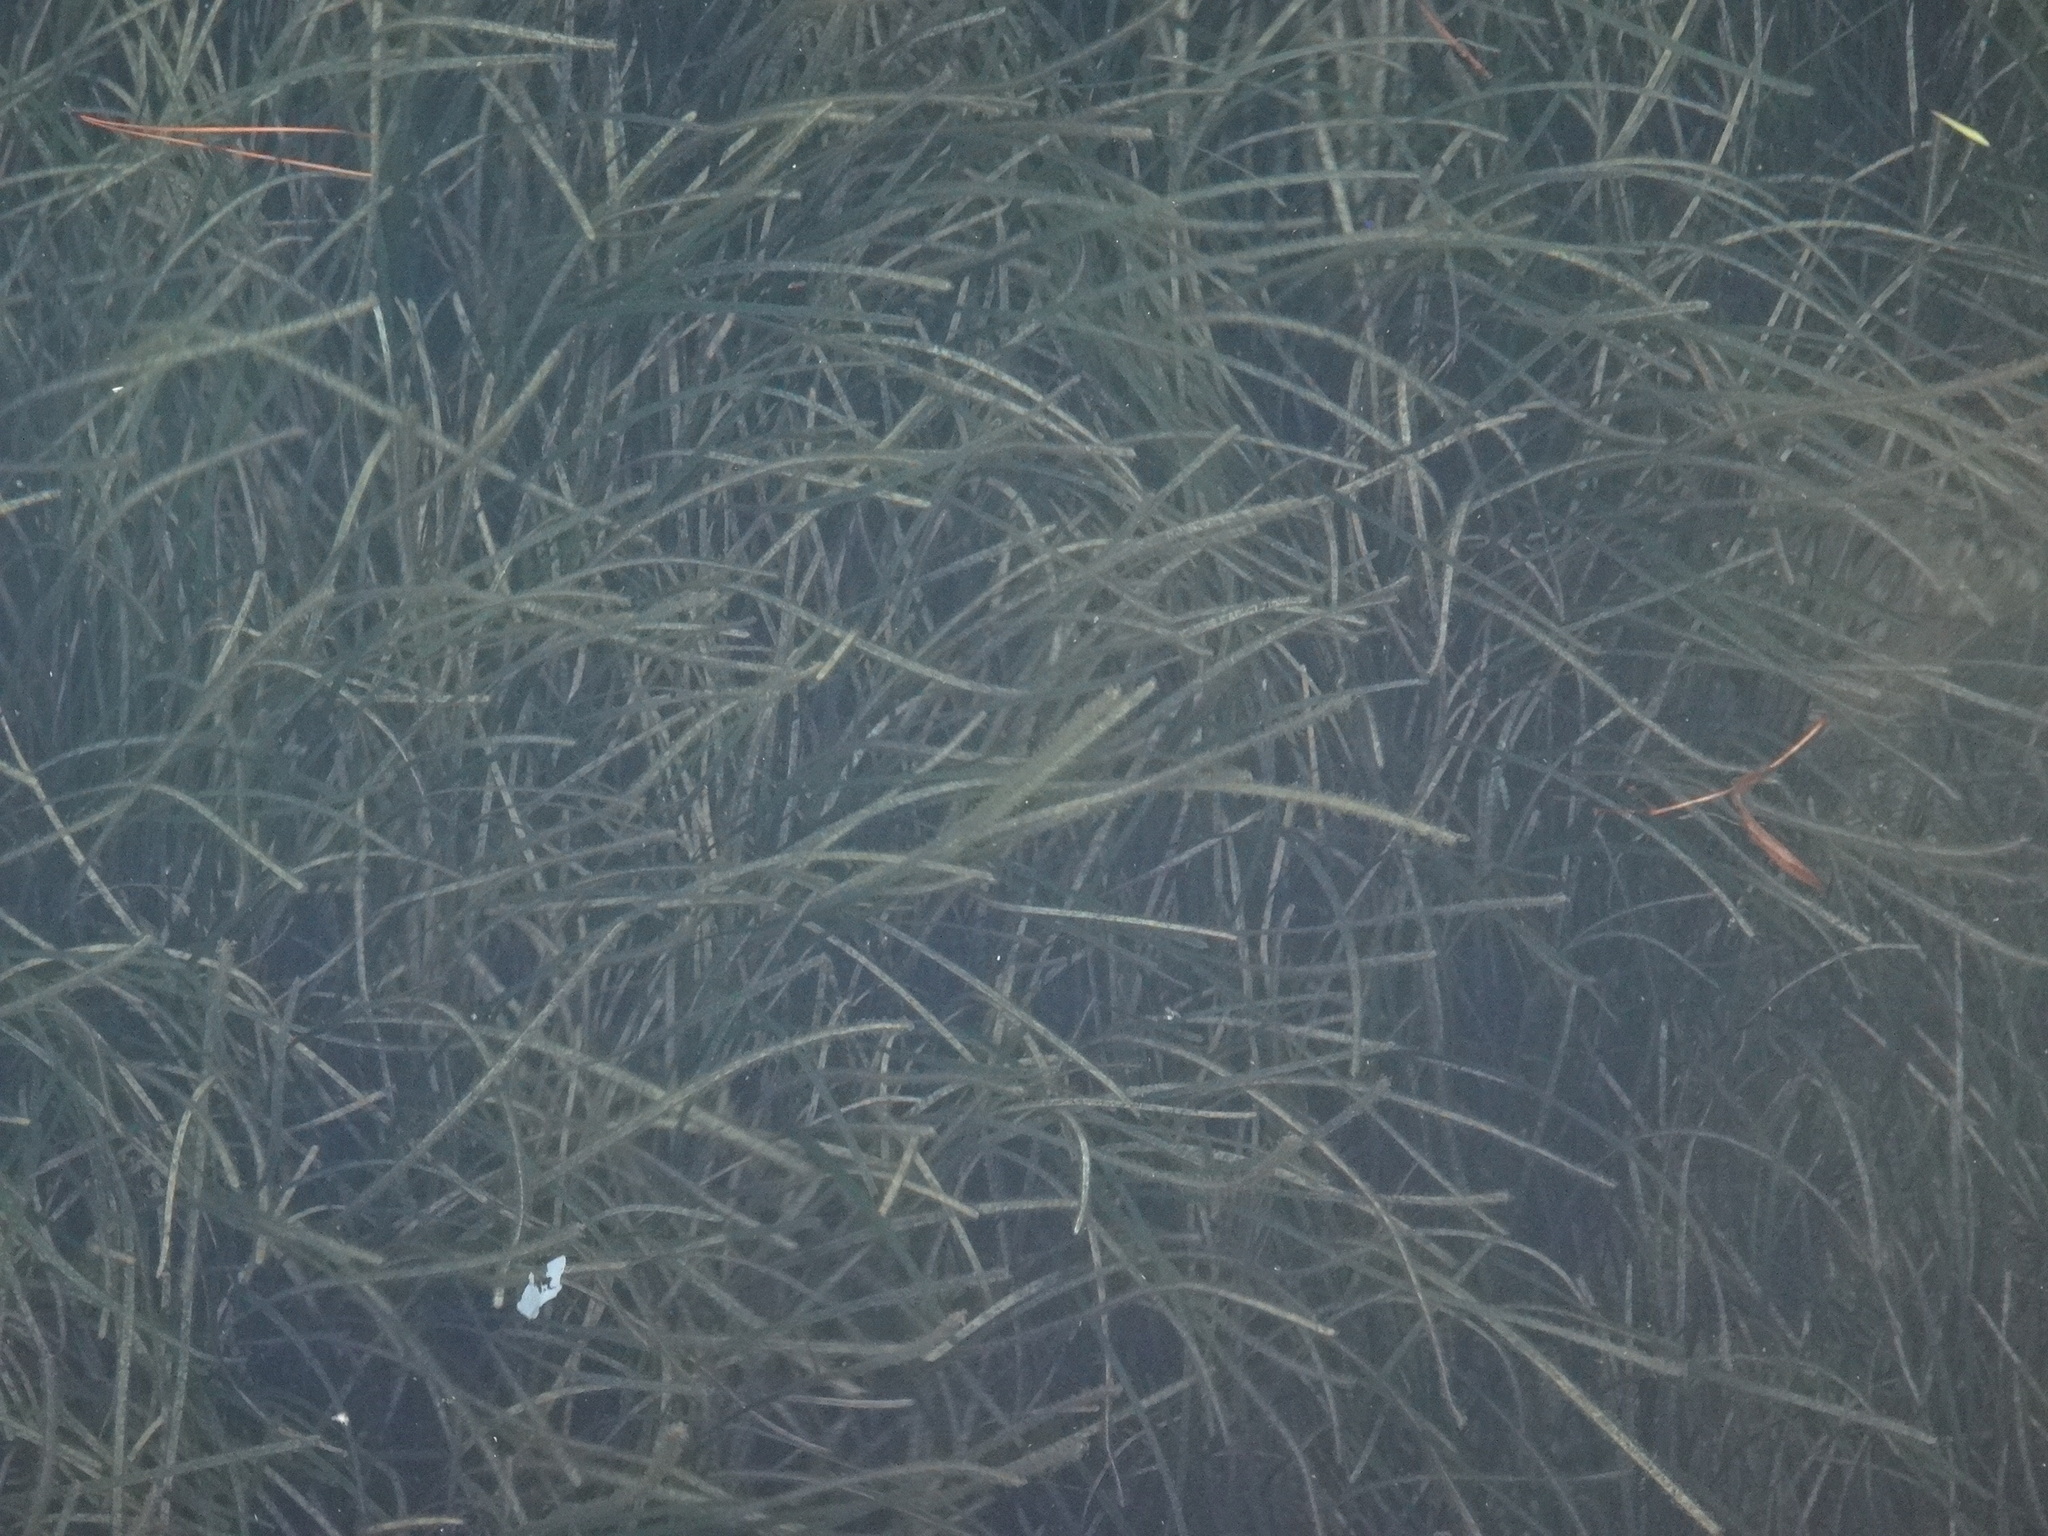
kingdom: Plantae
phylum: Tracheophyta
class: Liliopsida
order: Alismatales
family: Zosteraceae
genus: Zostera
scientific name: Zostera marina
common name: Eelgrass
